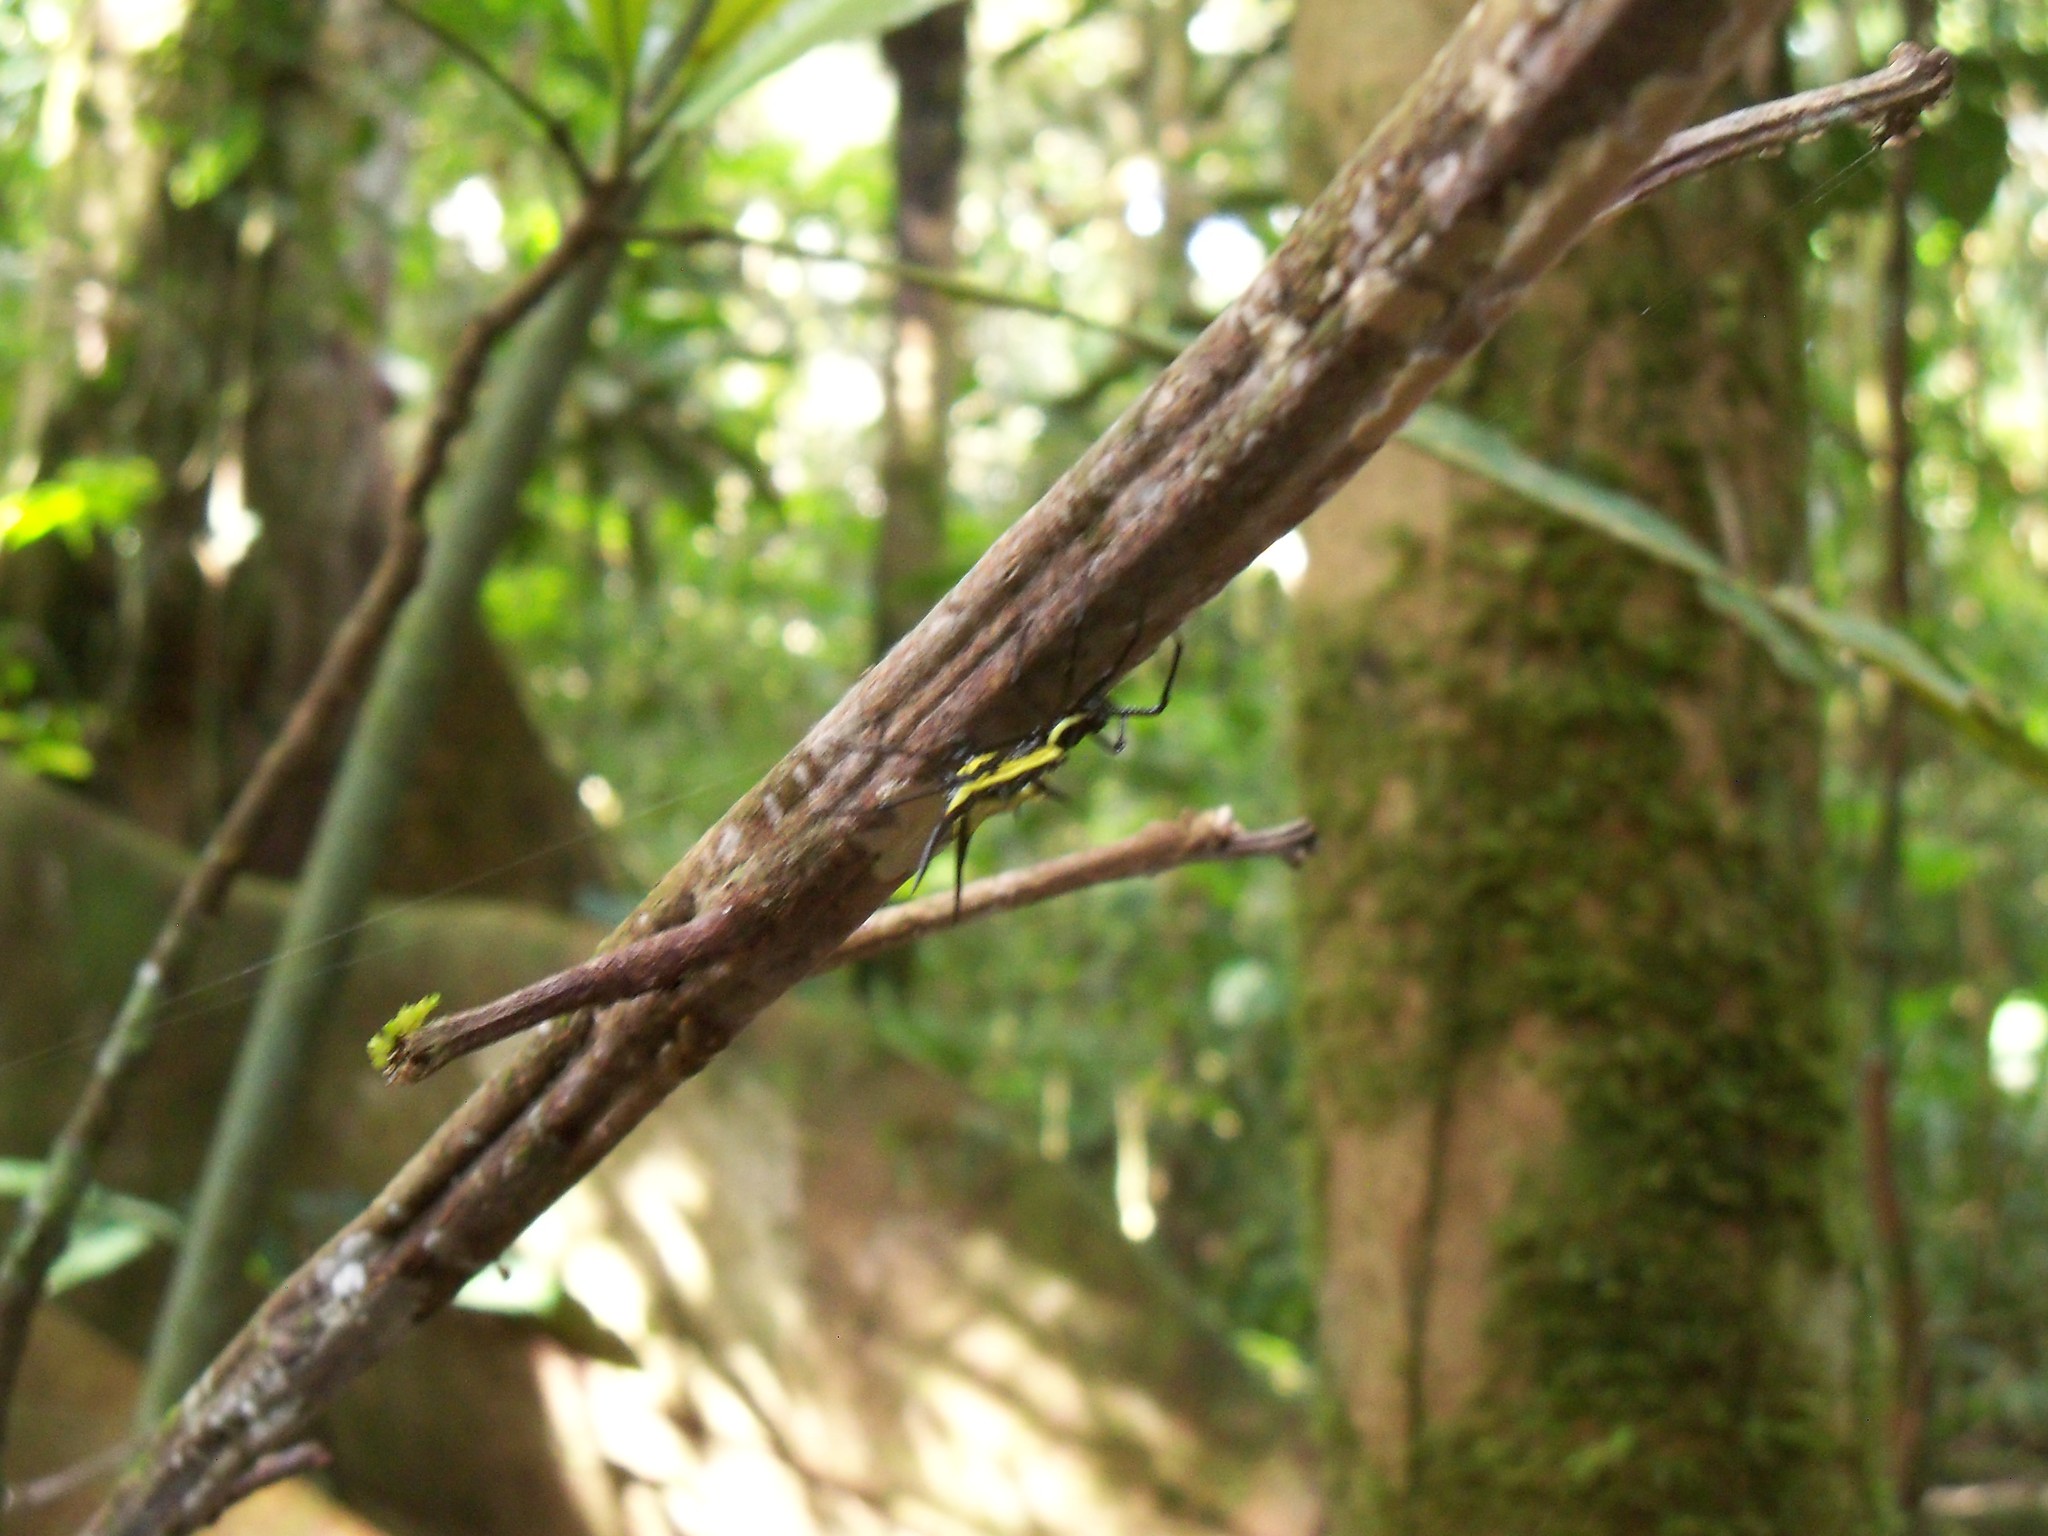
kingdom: Animalia
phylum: Arthropoda
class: Arachnida
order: Araneae
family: Araneidae
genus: Micrathena
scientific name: Micrathena schreibersi
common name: Orb weavers
